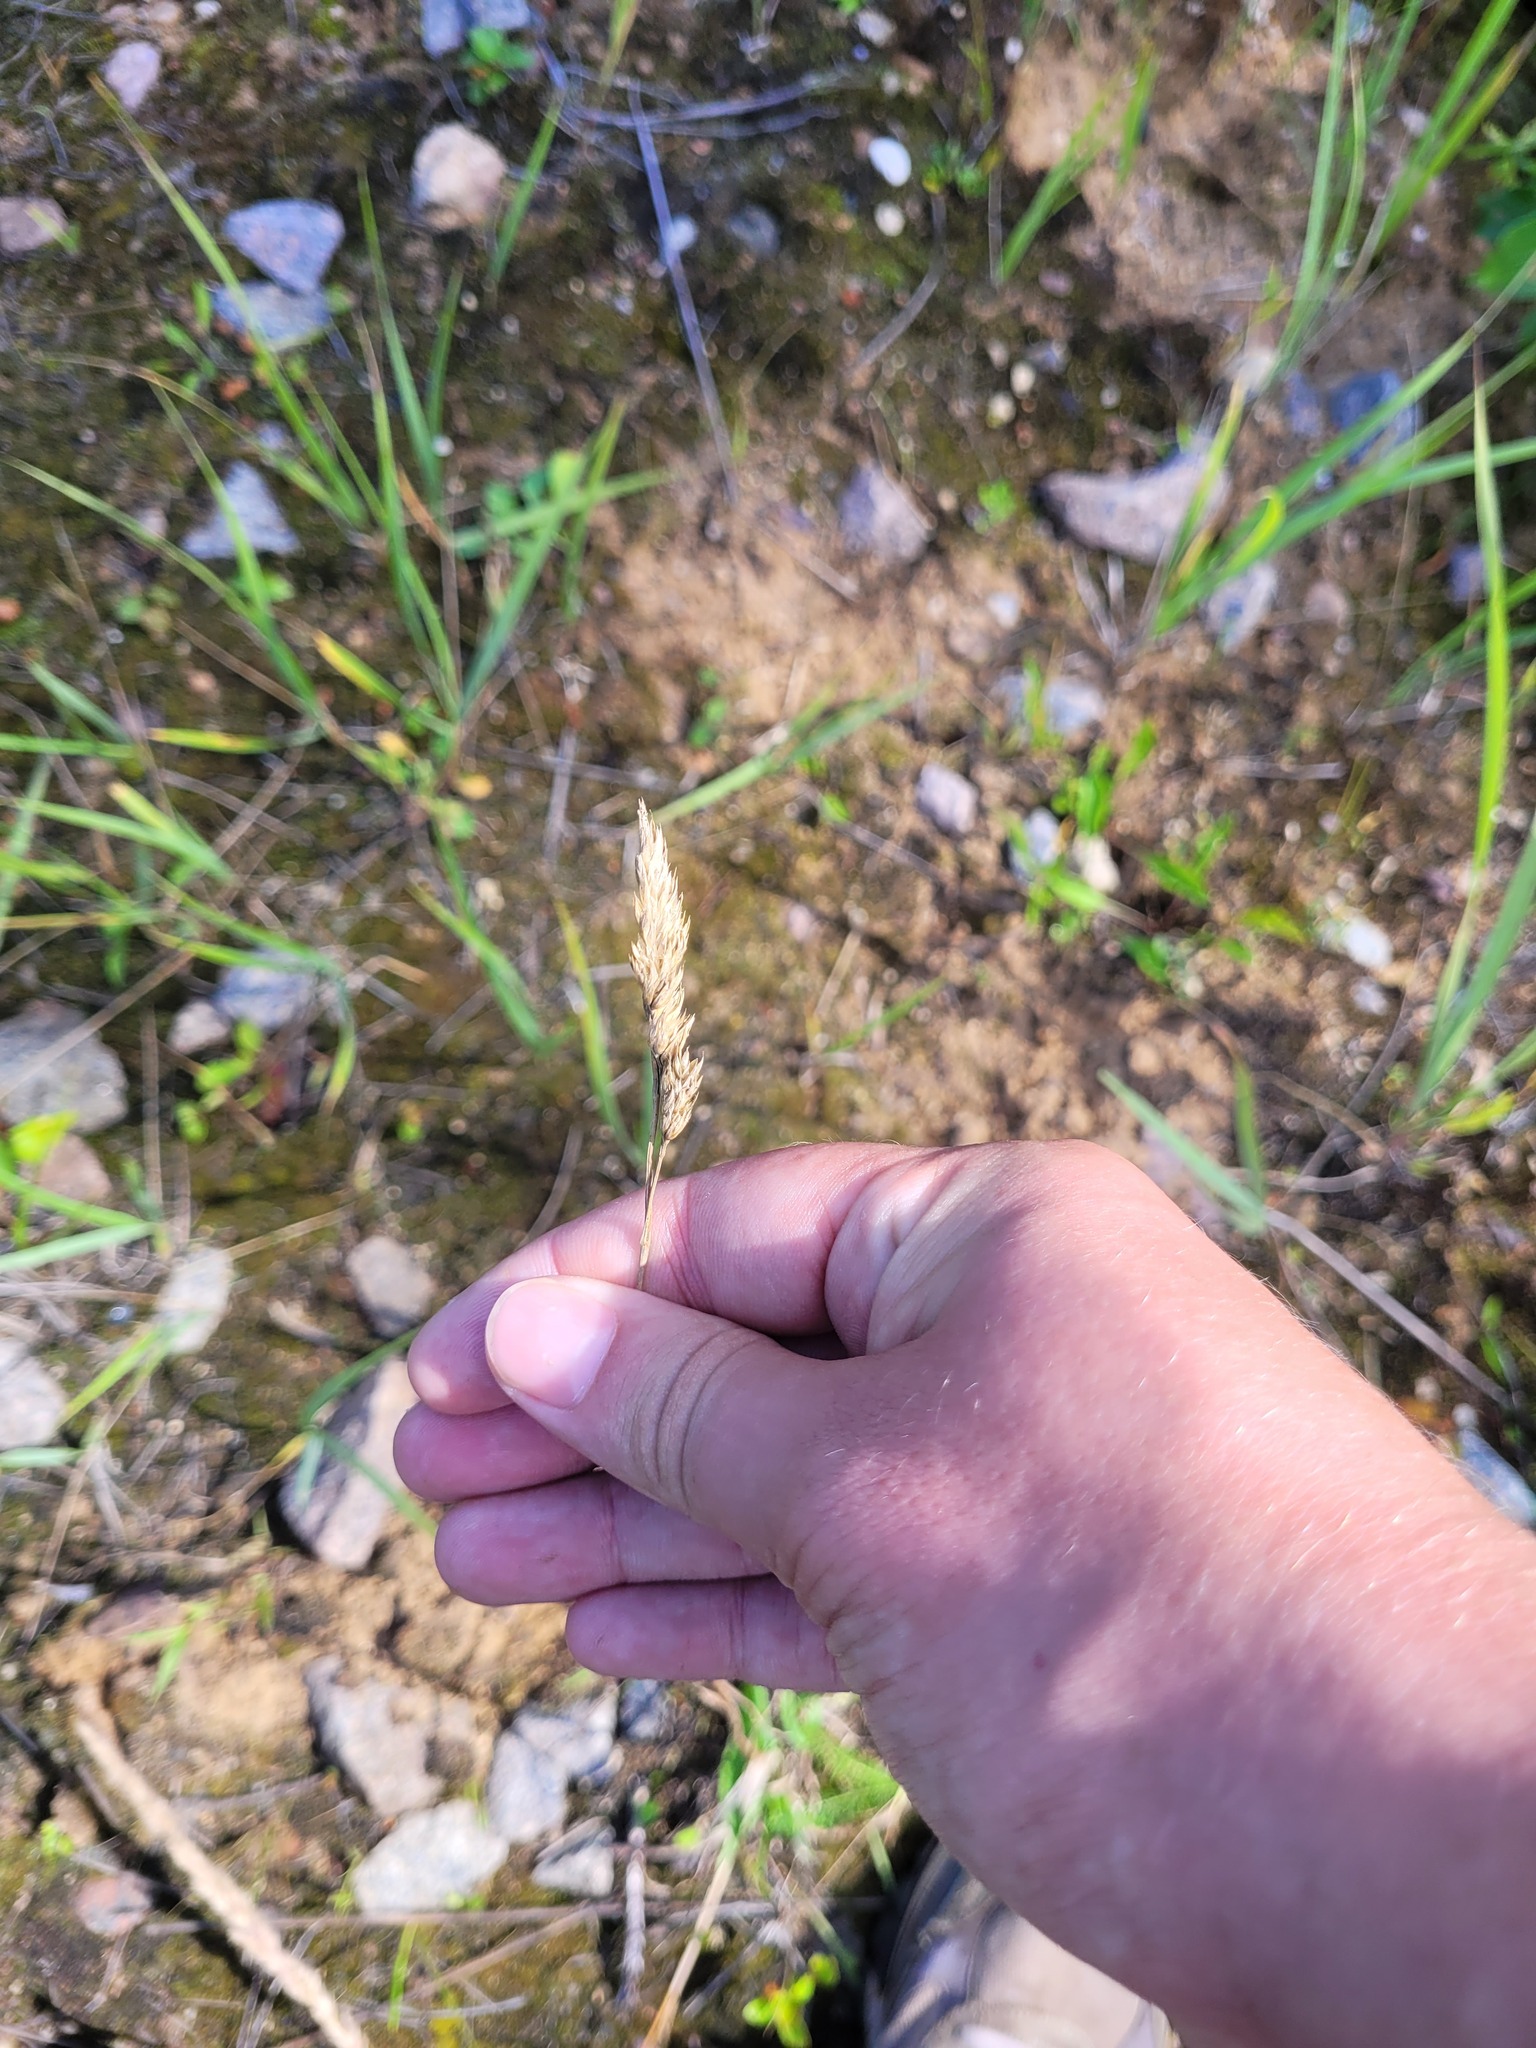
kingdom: Plantae
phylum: Tracheophyta
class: Liliopsida
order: Poales
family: Poaceae
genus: Dactylis
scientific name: Dactylis glomerata
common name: Orchardgrass
